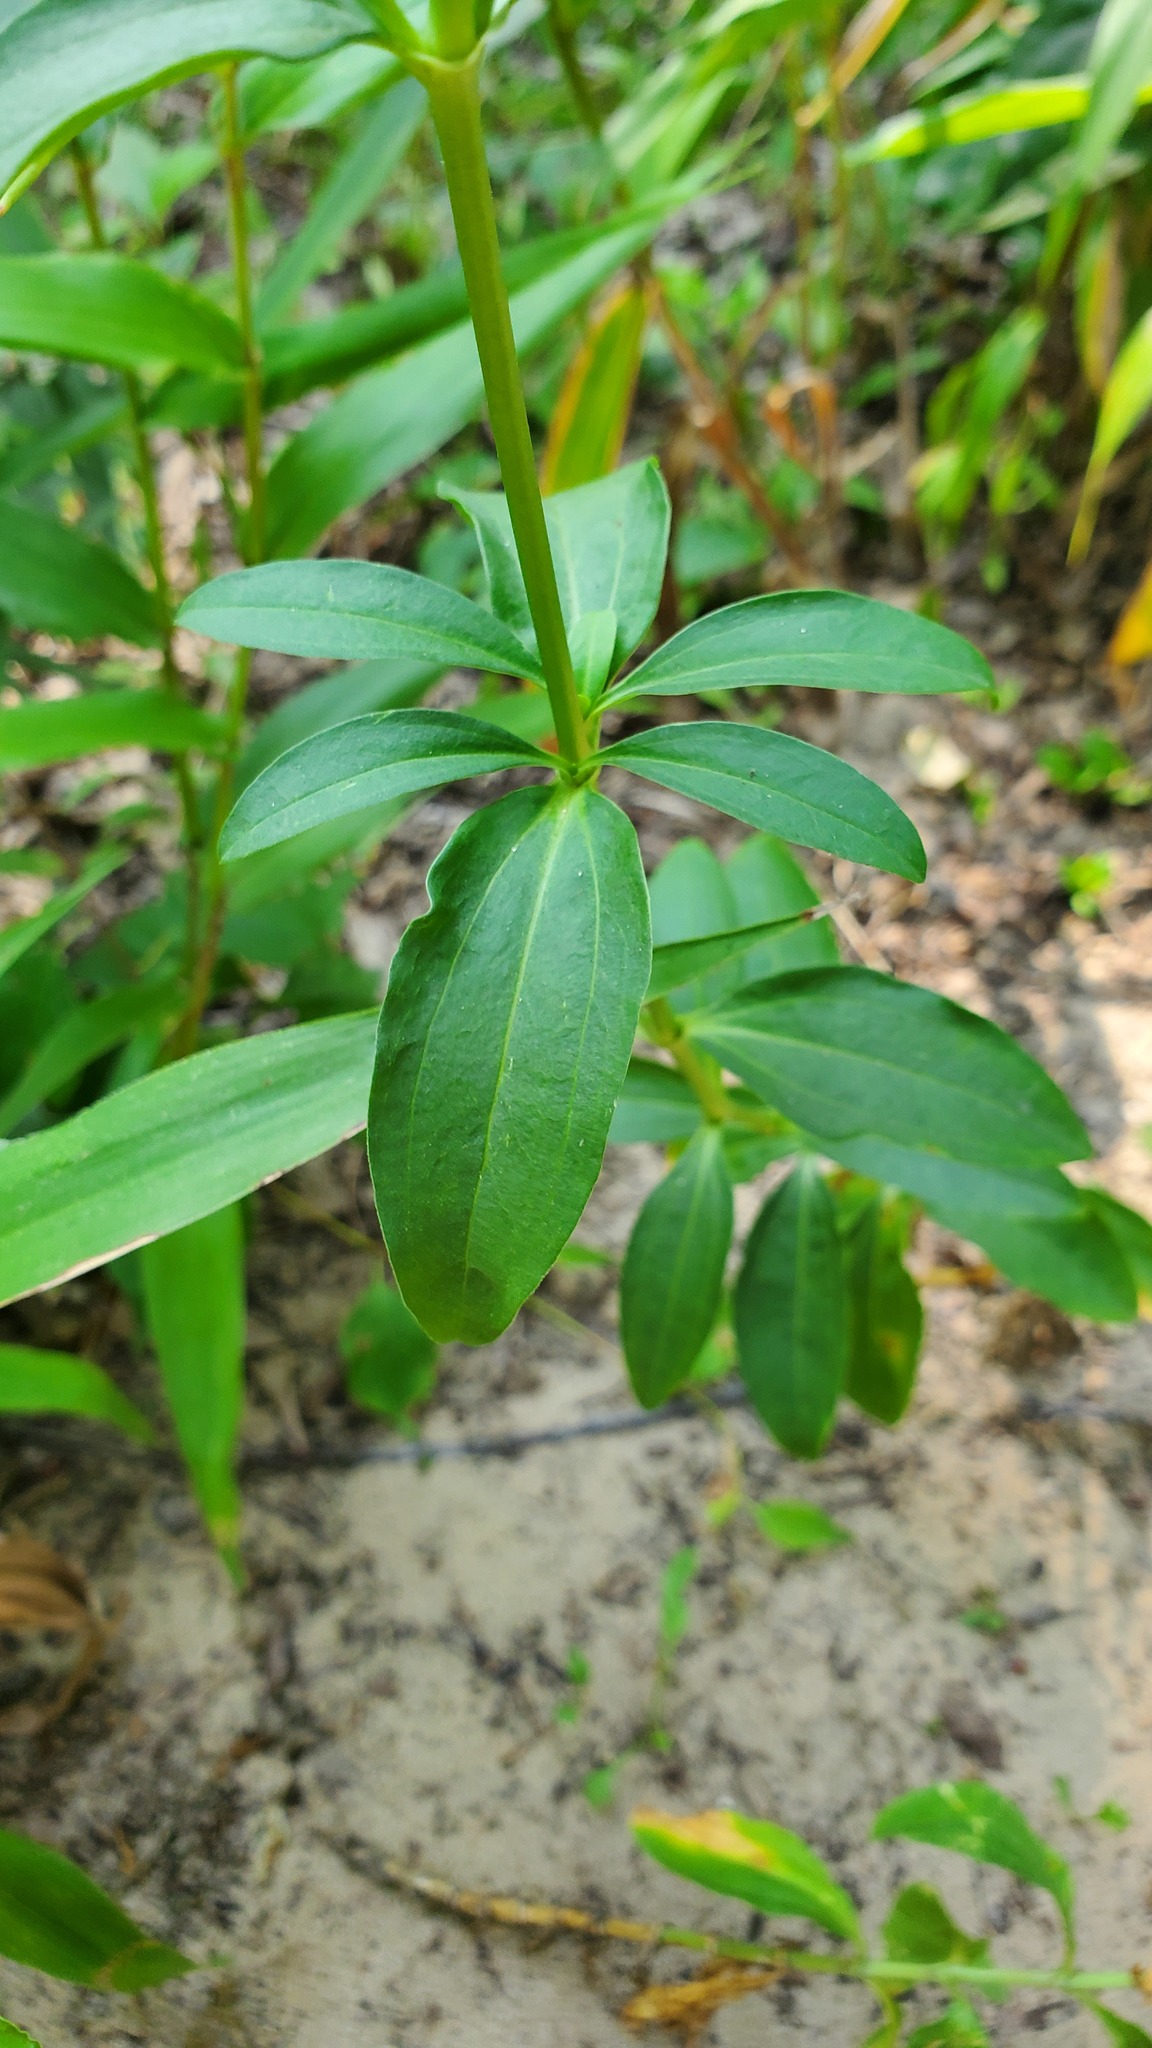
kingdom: Plantae
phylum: Tracheophyta
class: Magnoliopsida
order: Caryophyllales
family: Caryophyllaceae
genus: Saponaria
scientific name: Saponaria officinalis
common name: Soapwort
